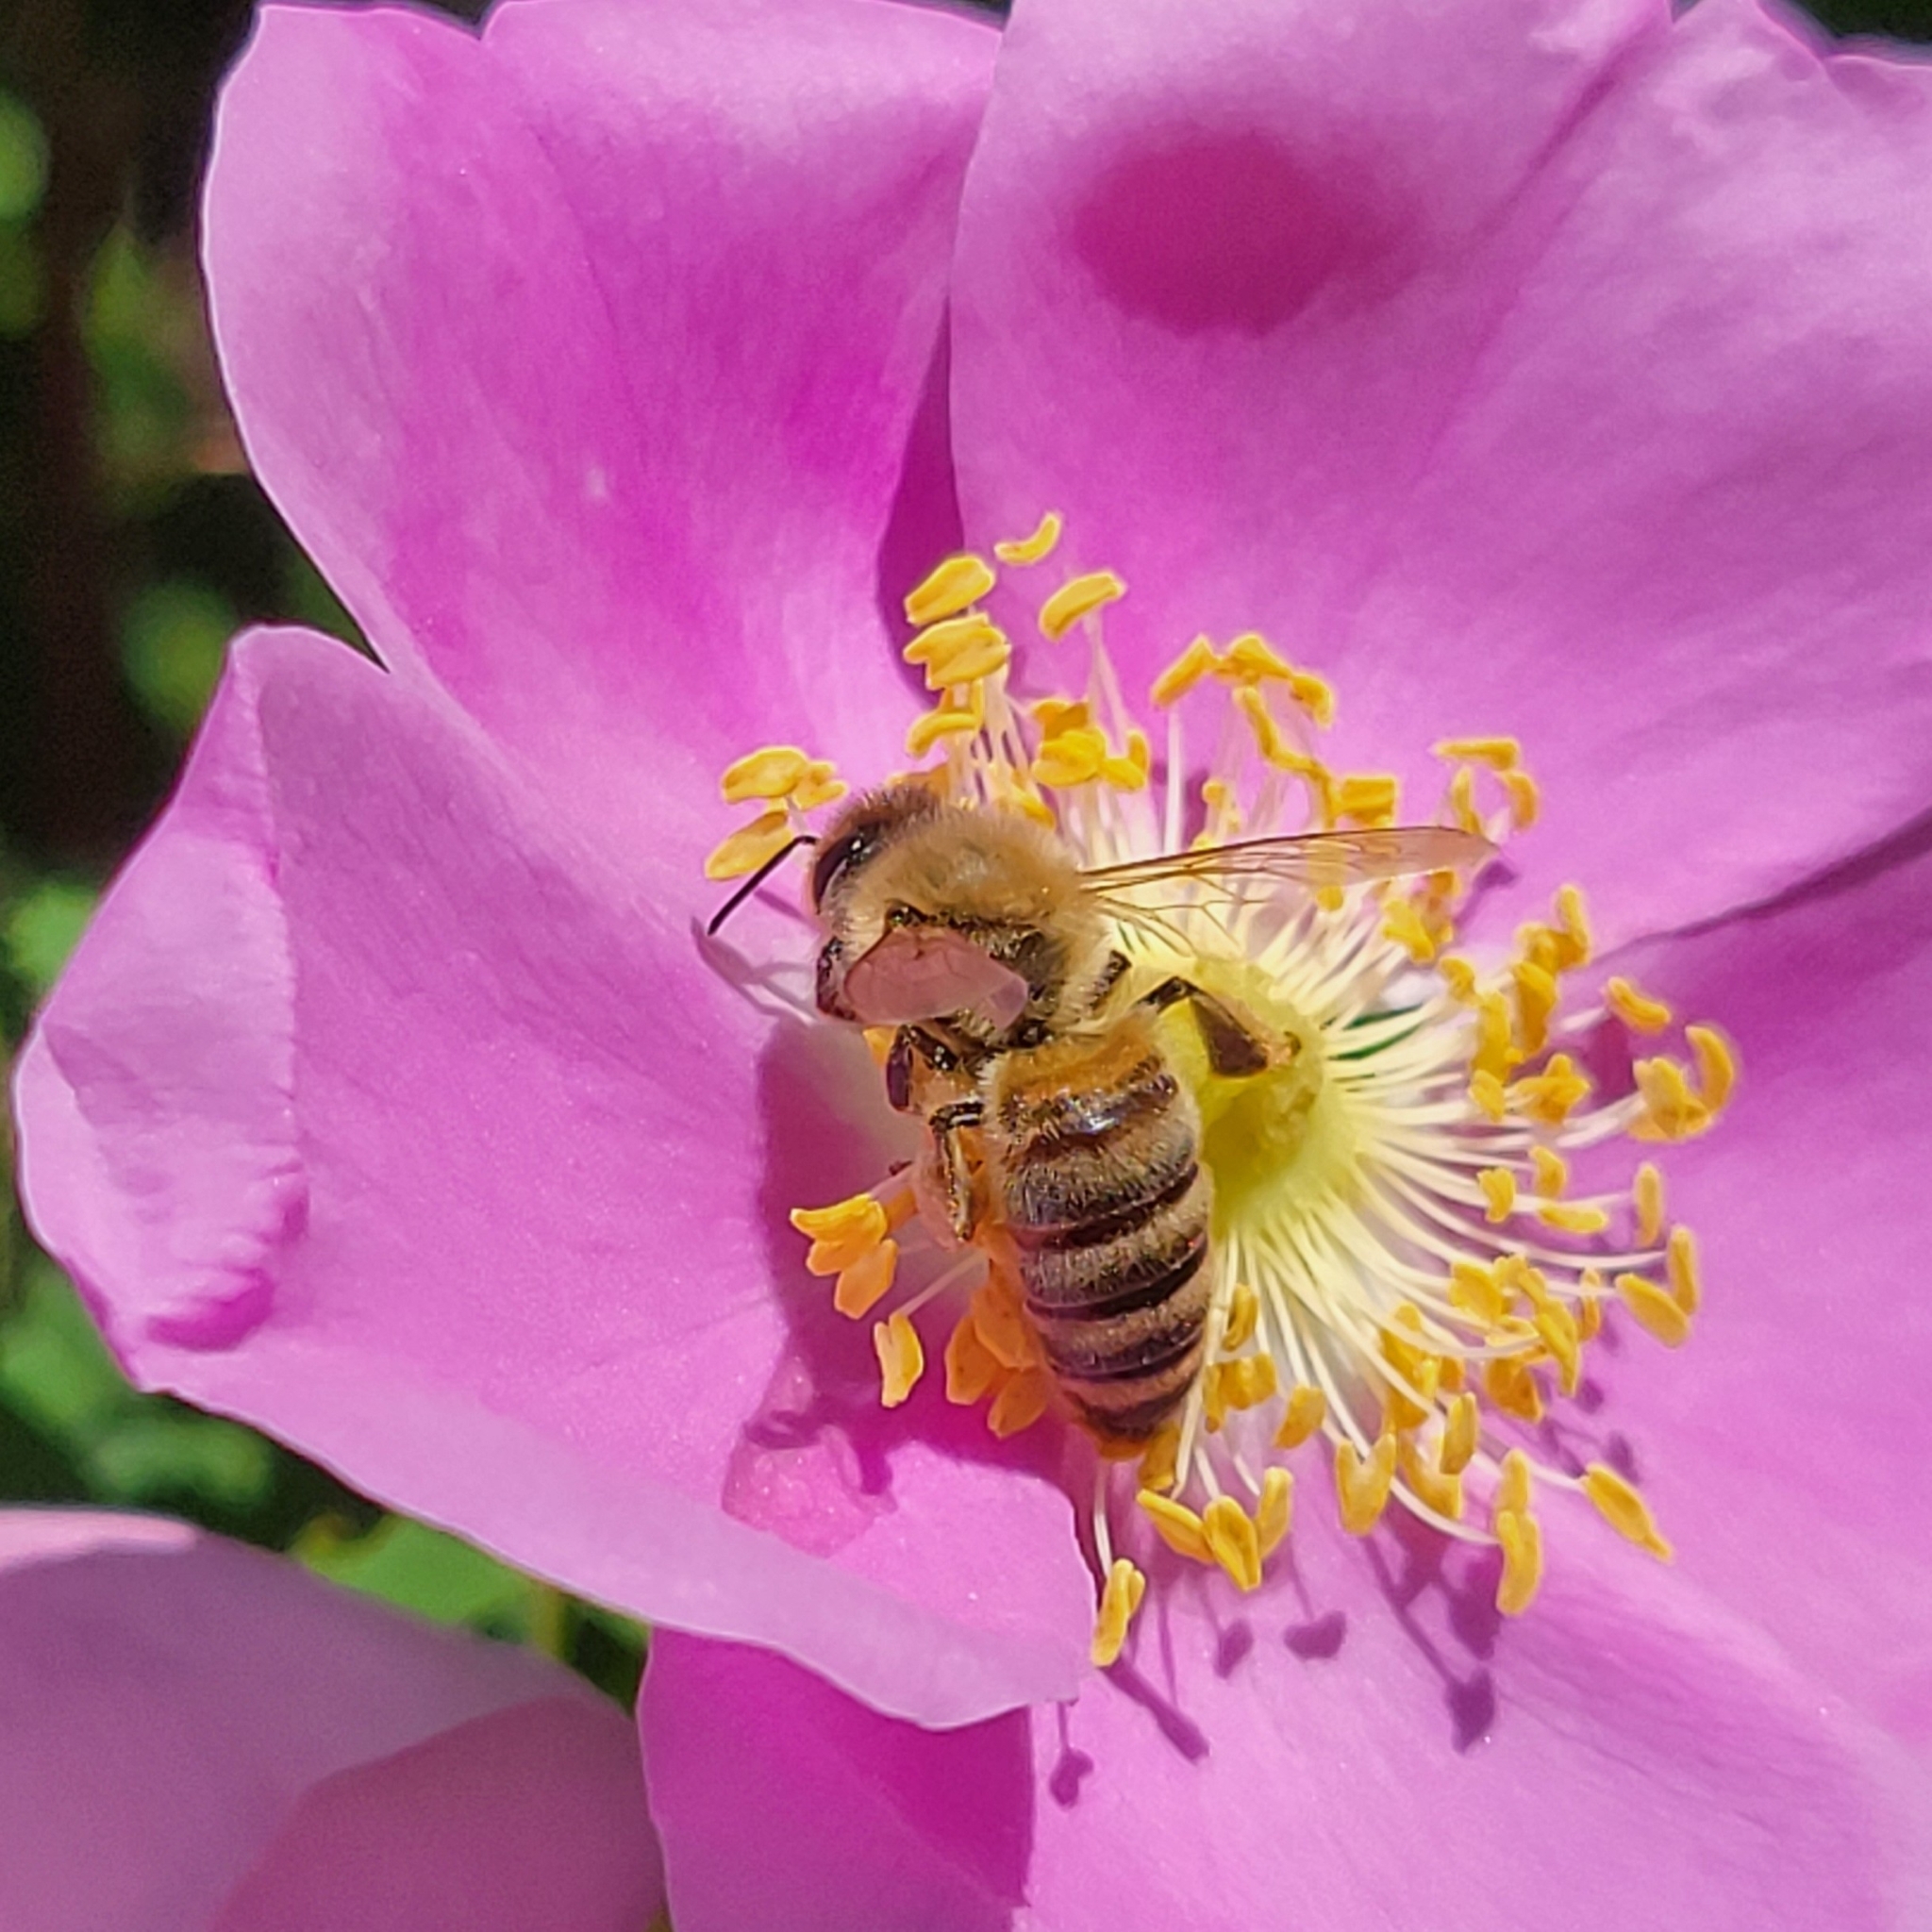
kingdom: Animalia
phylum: Arthropoda
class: Insecta
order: Hymenoptera
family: Apidae
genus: Apis
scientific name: Apis mellifera
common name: Honey bee
